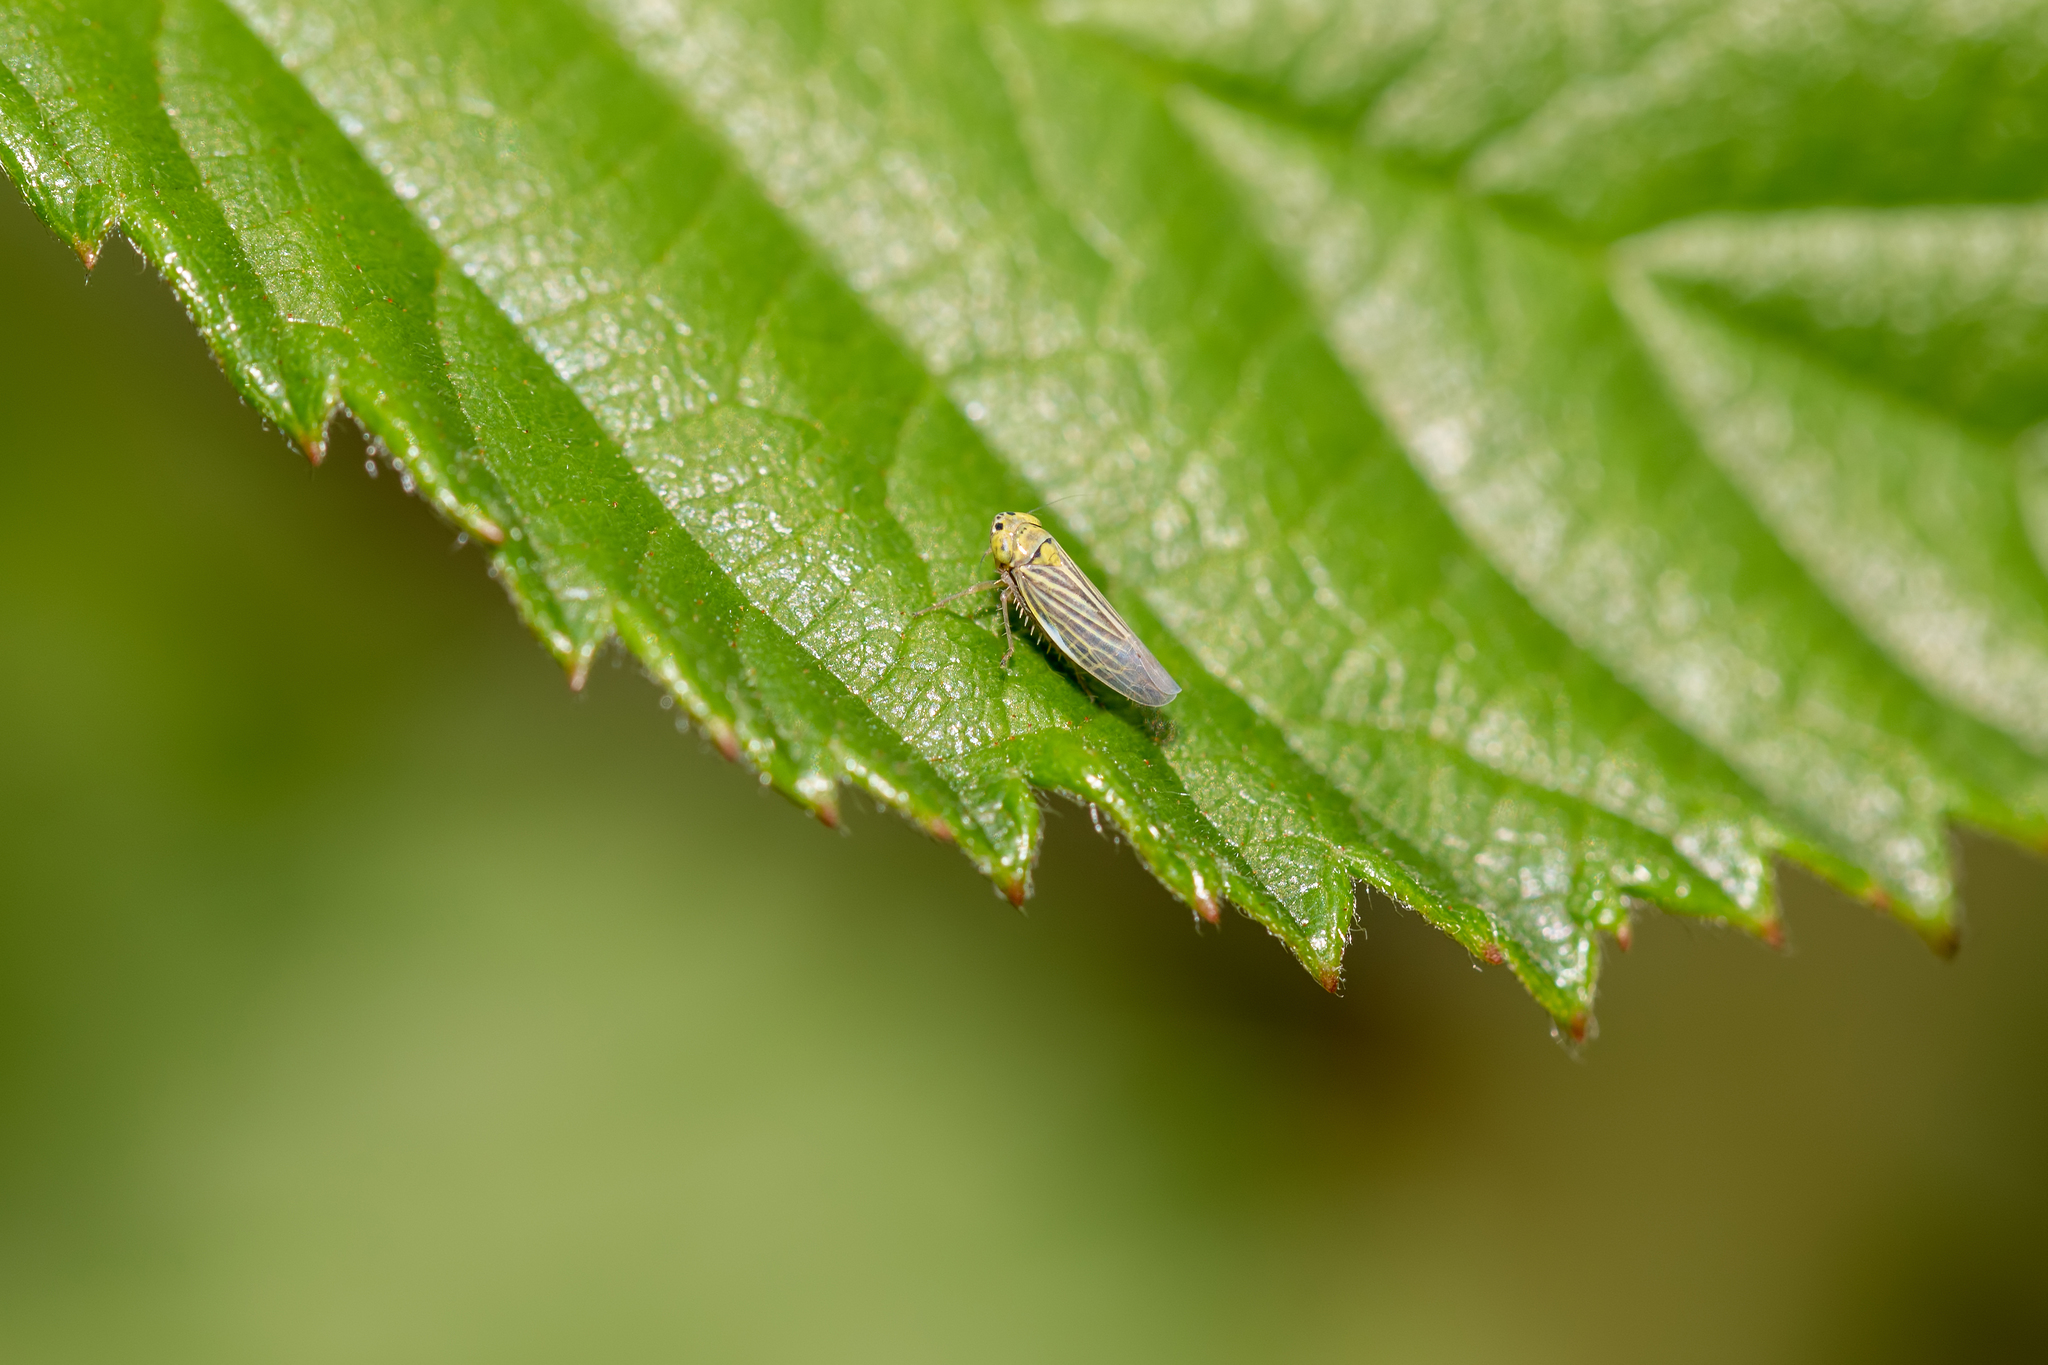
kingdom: Animalia
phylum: Arthropoda
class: Insecta
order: Hemiptera
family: Cicadellidae
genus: Graminella
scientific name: Graminella cognita
